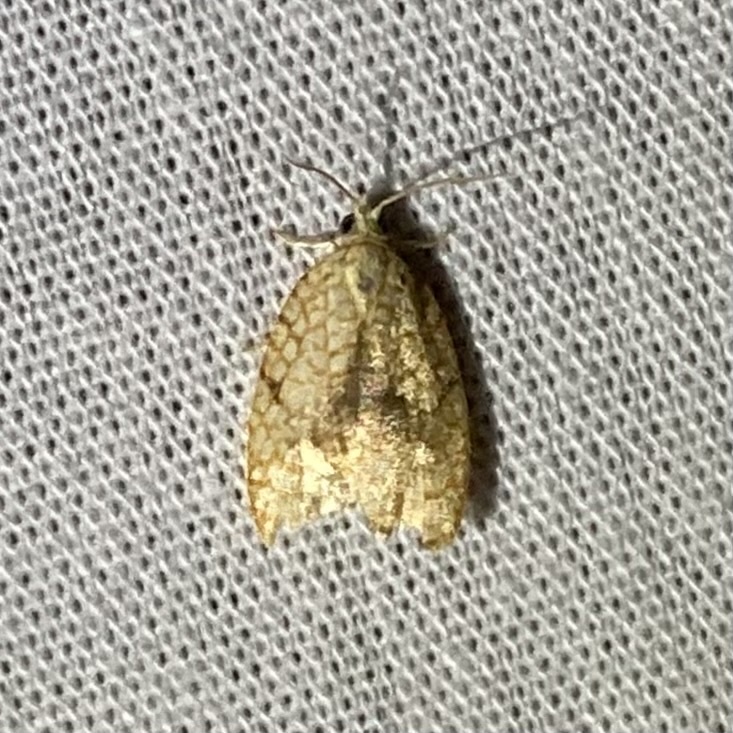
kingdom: Animalia
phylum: Arthropoda
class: Insecta
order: Lepidoptera
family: Tortricidae
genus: Acleris
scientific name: Acleris forsskaleana
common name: Maple button
